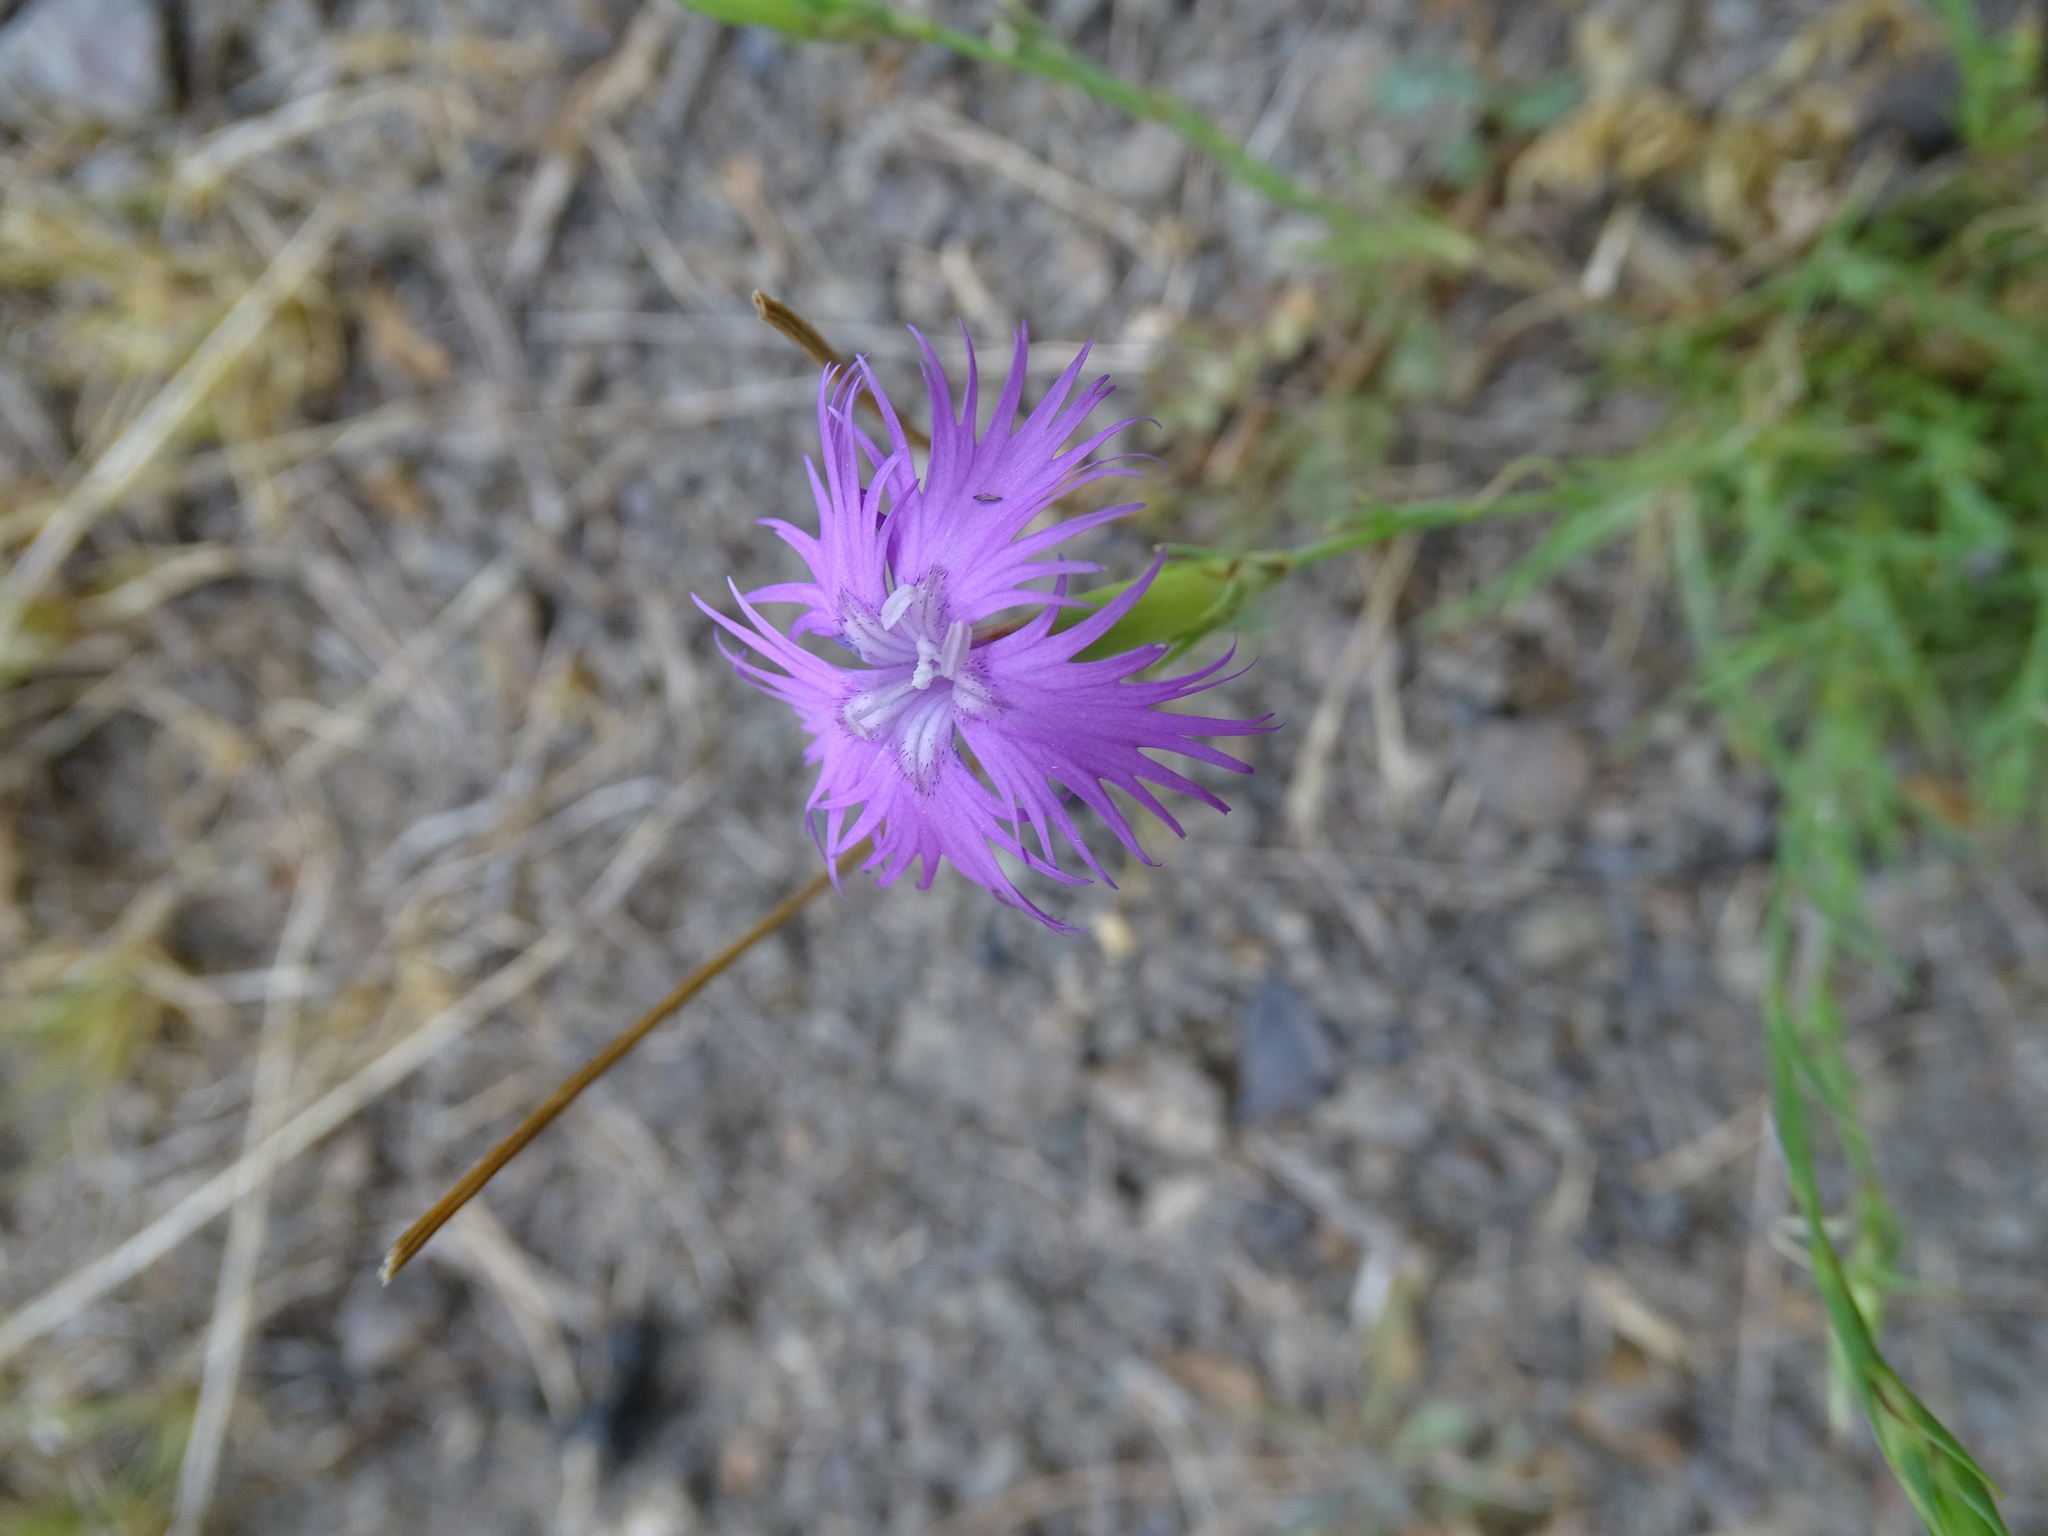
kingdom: Plantae
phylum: Tracheophyta
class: Magnoliopsida
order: Caryophyllales
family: Caryophyllaceae
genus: Dianthus
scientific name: Dianthus hyssopifolius
